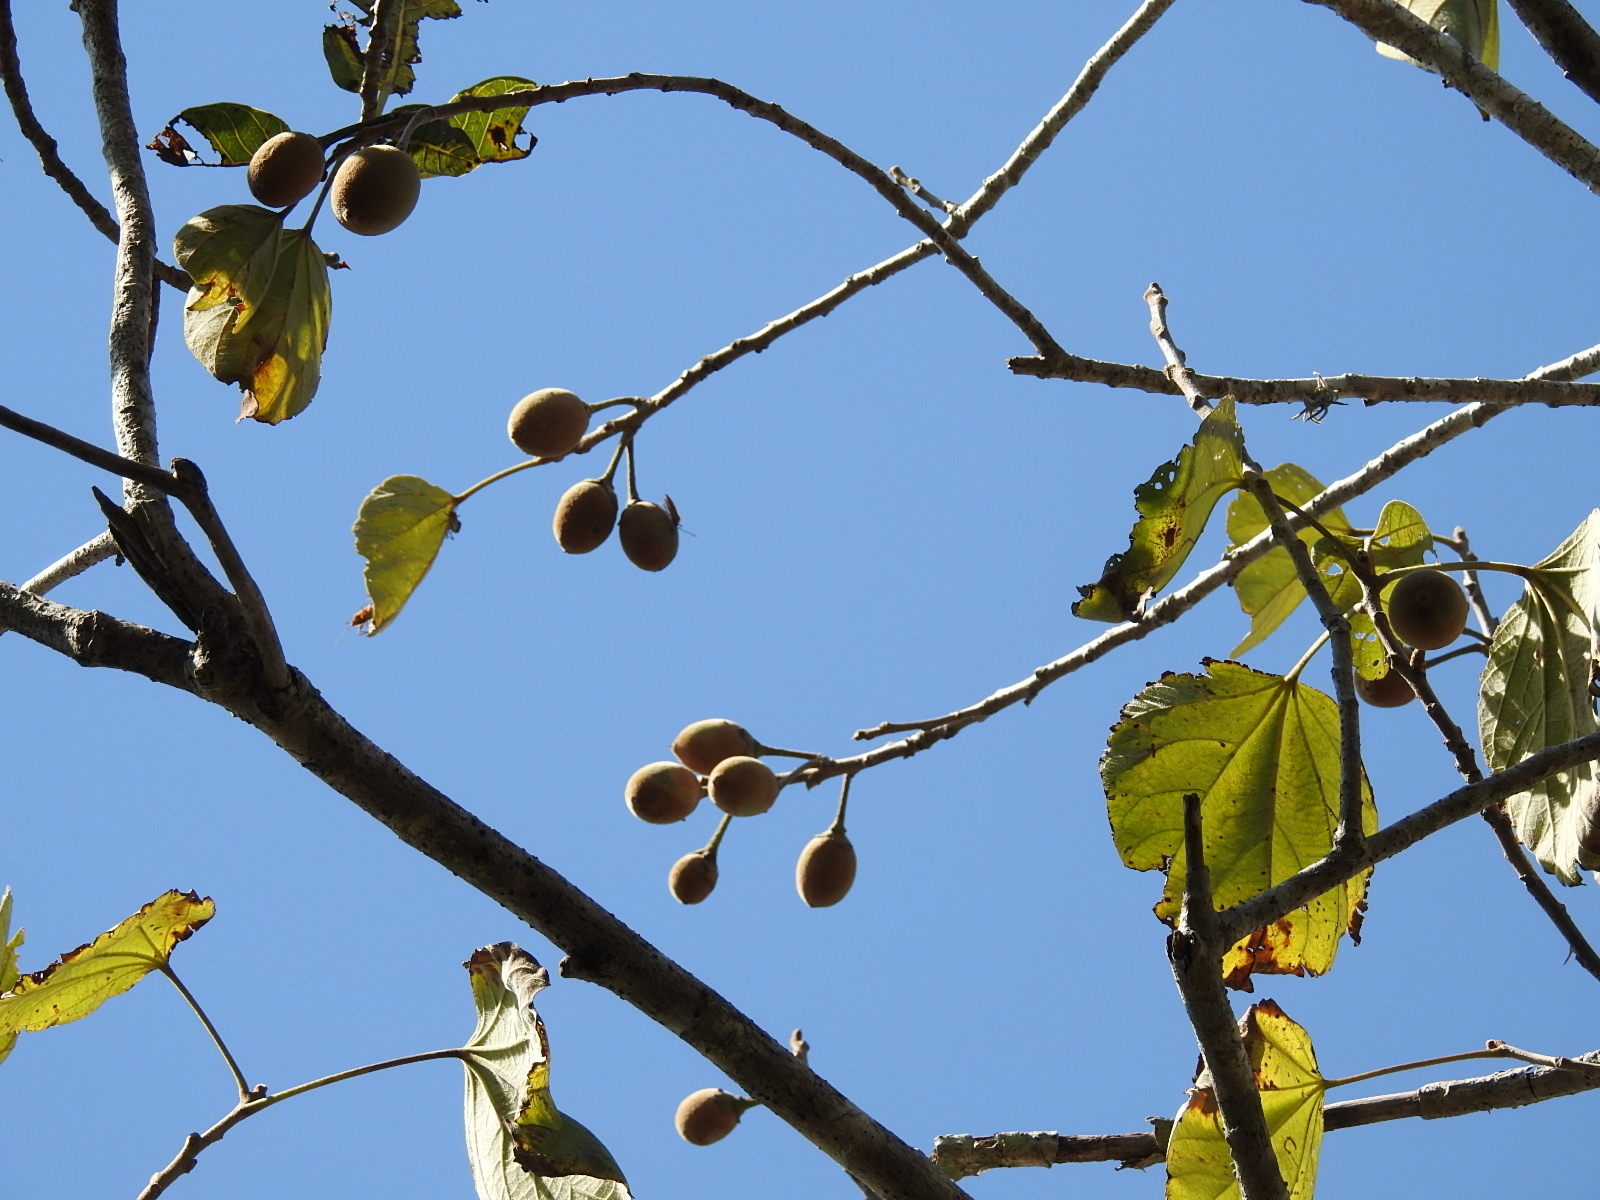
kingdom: Plantae
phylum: Tracheophyta
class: Magnoliopsida
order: Malvales
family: Malvaceae
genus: Hampea
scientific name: Hampea nutricia
